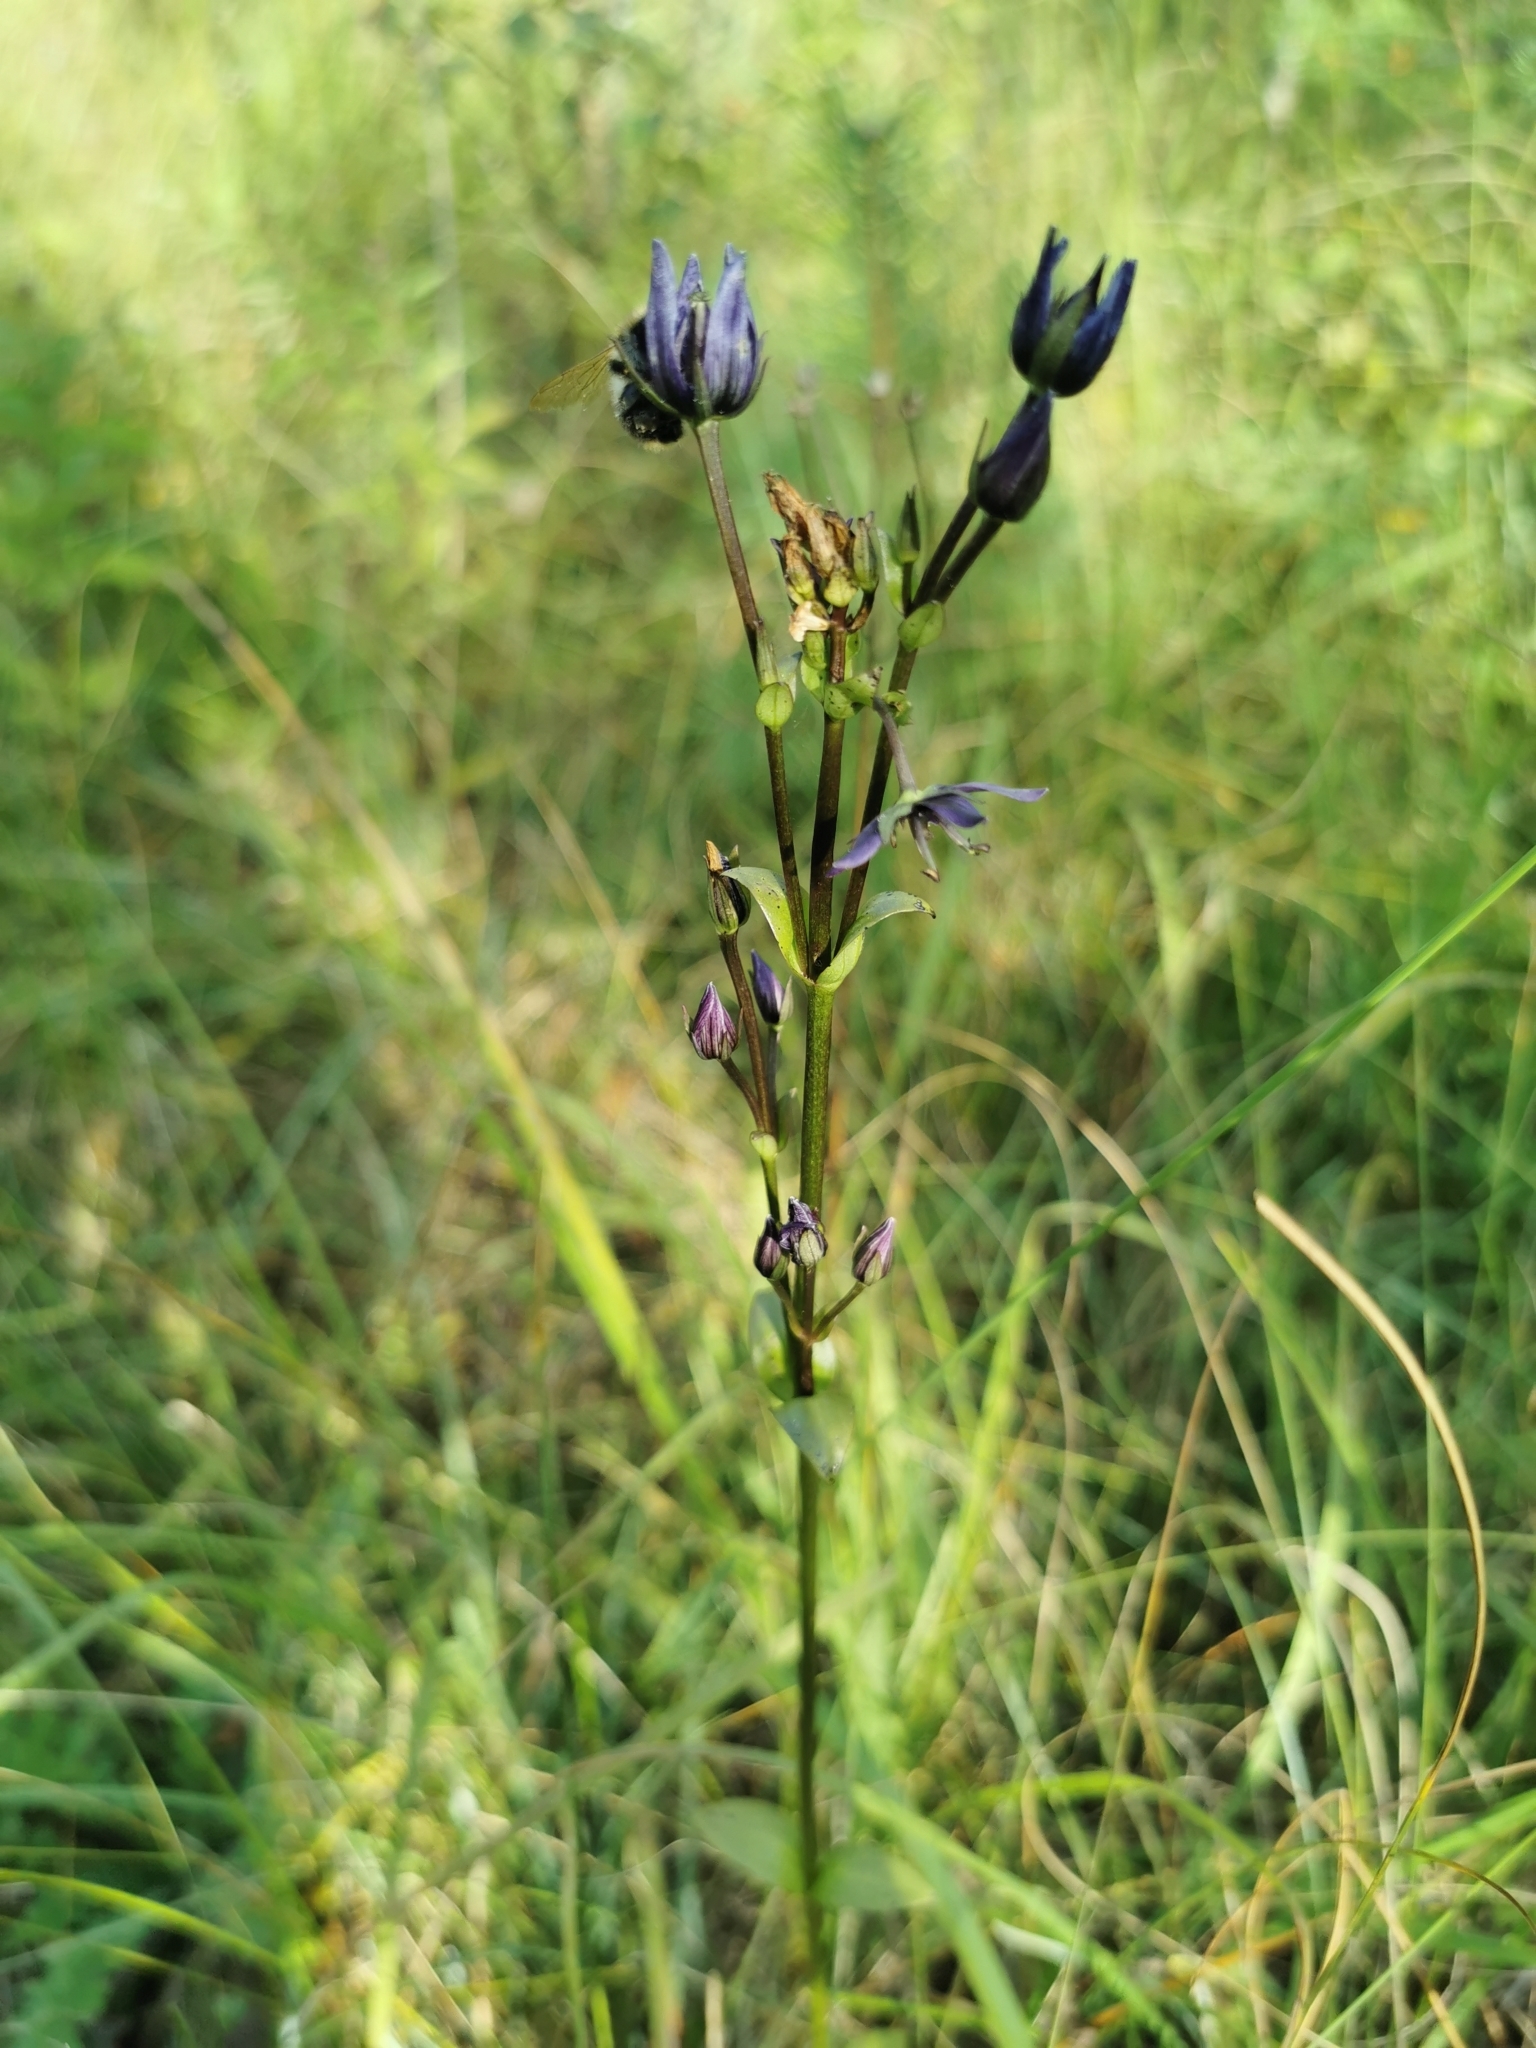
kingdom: Plantae
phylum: Tracheophyta
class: Magnoliopsida
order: Gentianales
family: Gentianaceae
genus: Swertia
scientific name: Swertia perennis
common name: Alpine bog swertia
